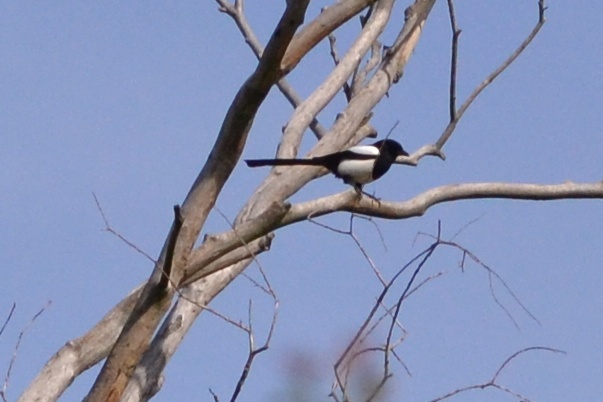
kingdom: Animalia
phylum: Chordata
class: Aves
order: Passeriformes
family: Corvidae
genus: Pica
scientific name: Pica pica
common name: Eurasian magpie
